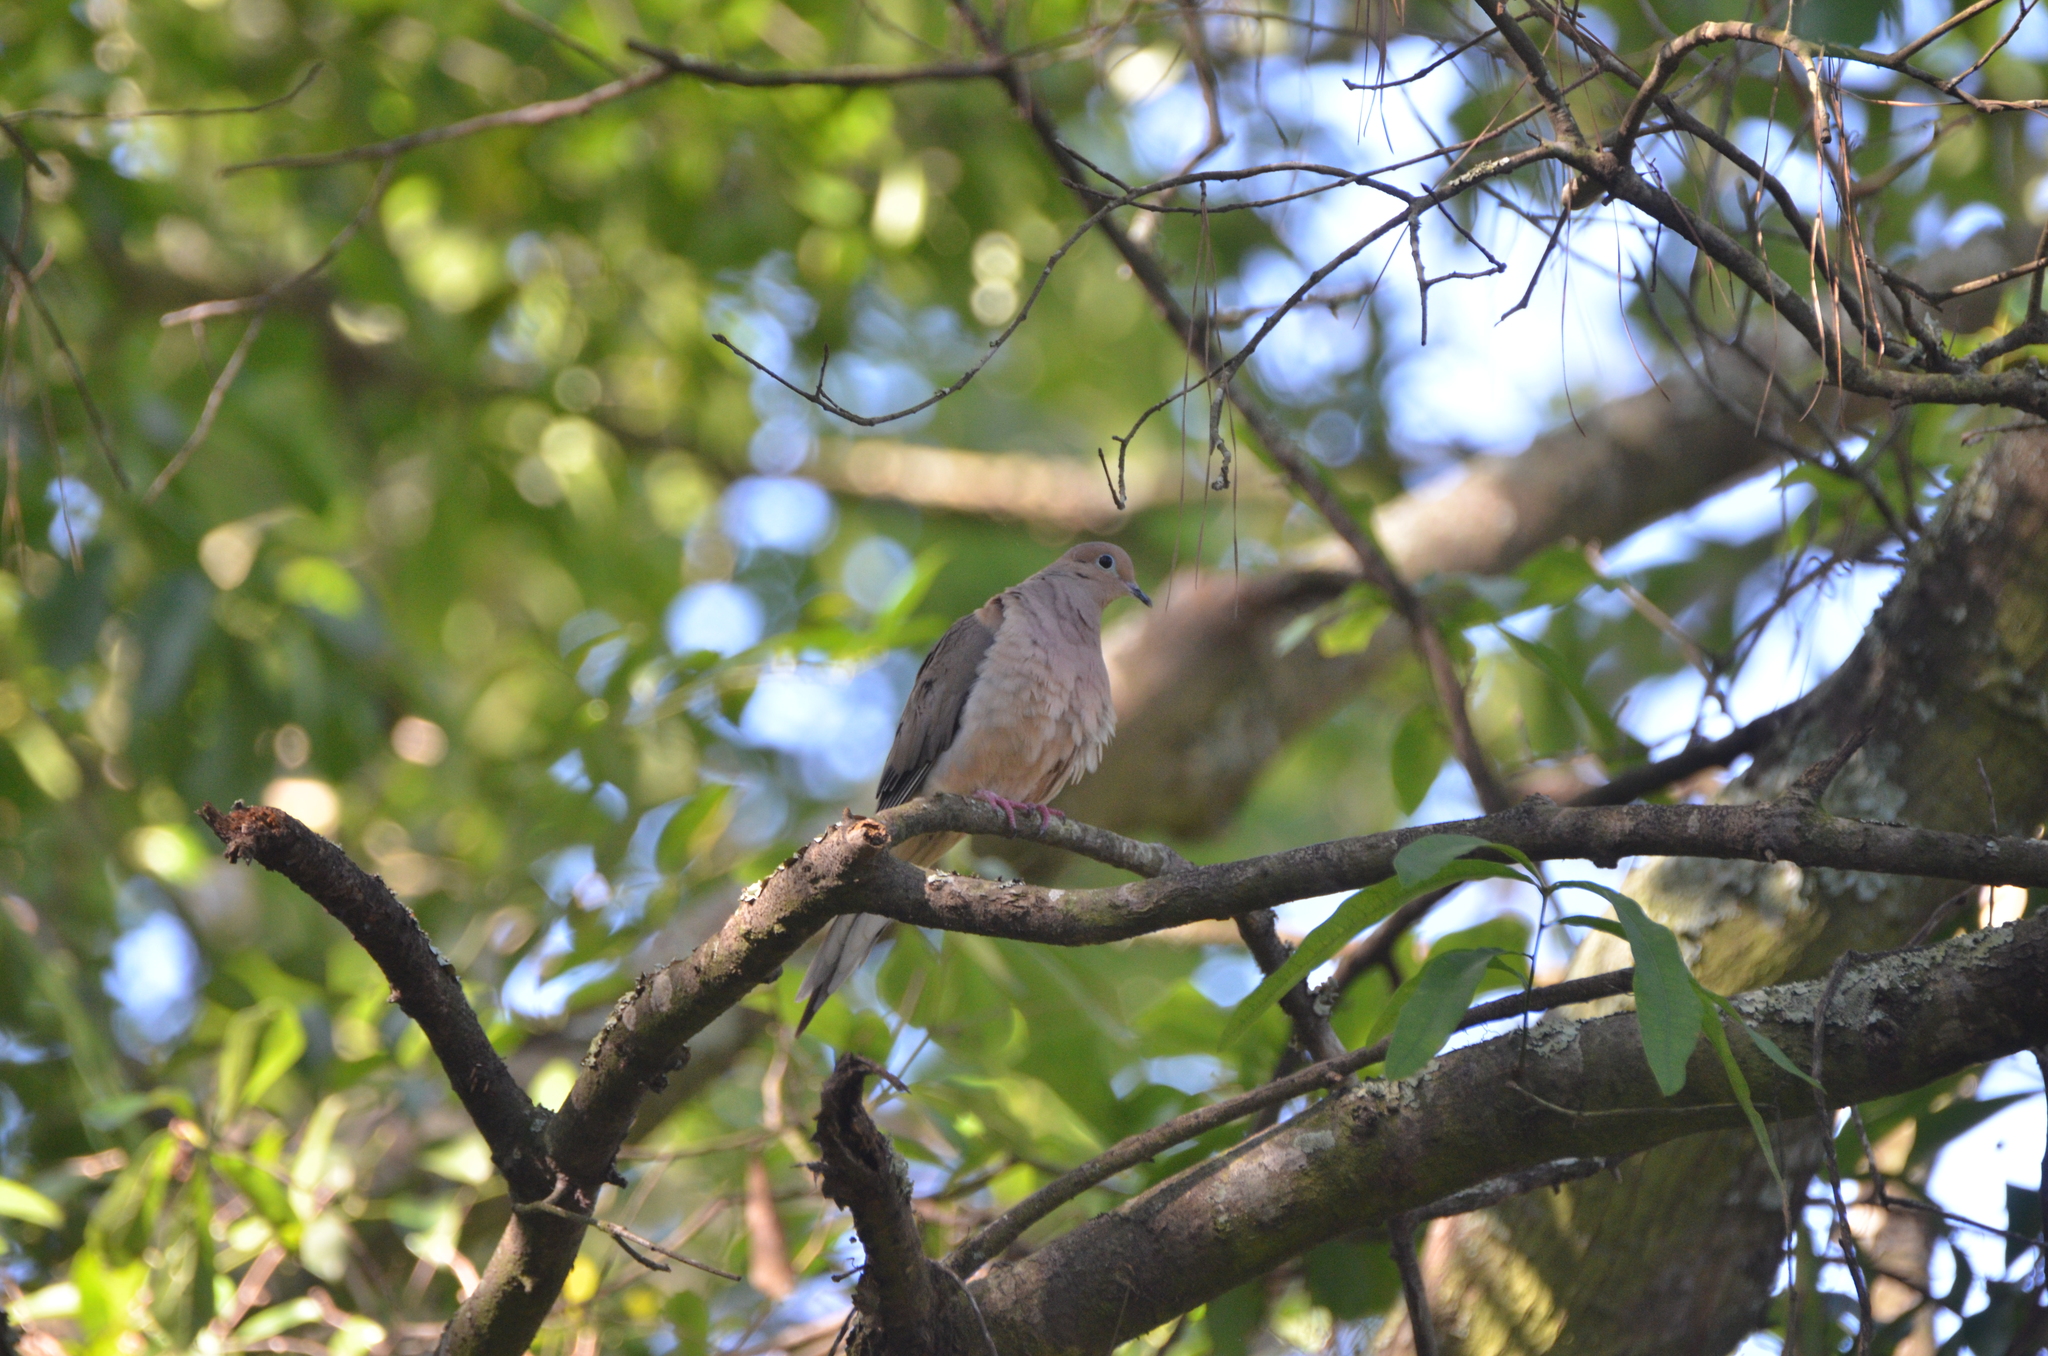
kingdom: Animalia
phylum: Chordata
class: Aves
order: Columbiformes
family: Columbidae
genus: Zenaida
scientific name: Zenaida macroura
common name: Mourning dove
